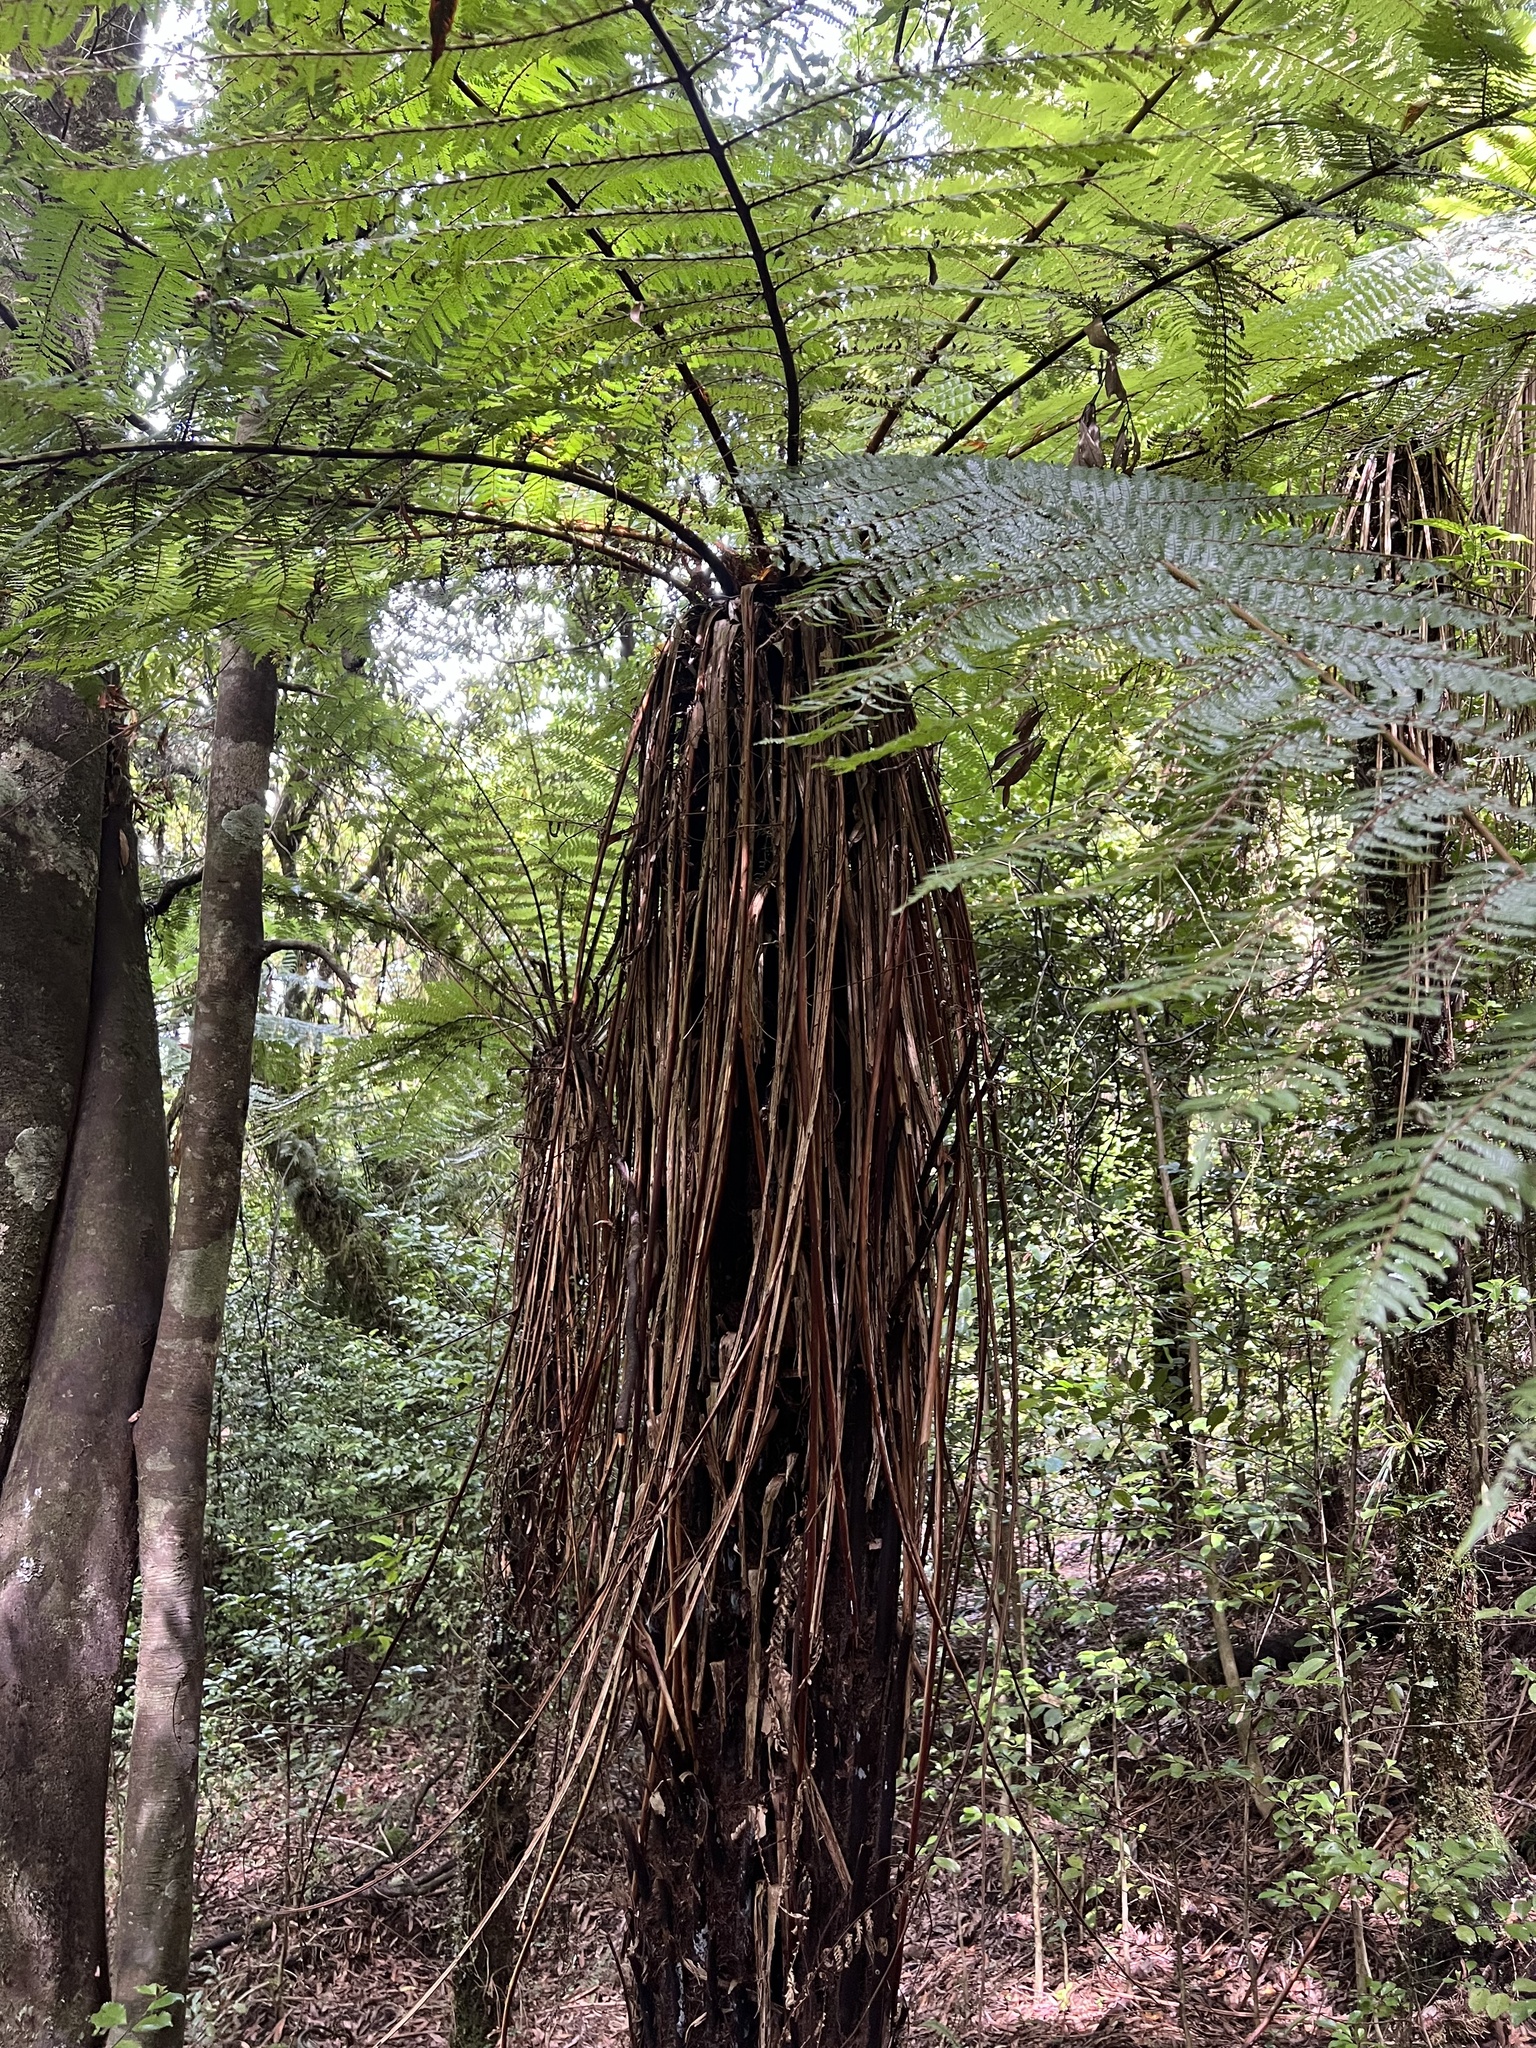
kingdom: Plantae
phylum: Tracheophyta
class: Polypodiopsida
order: Cyatheales
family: Cyatheaceae
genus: Alsophila
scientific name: Alsophila smithii
